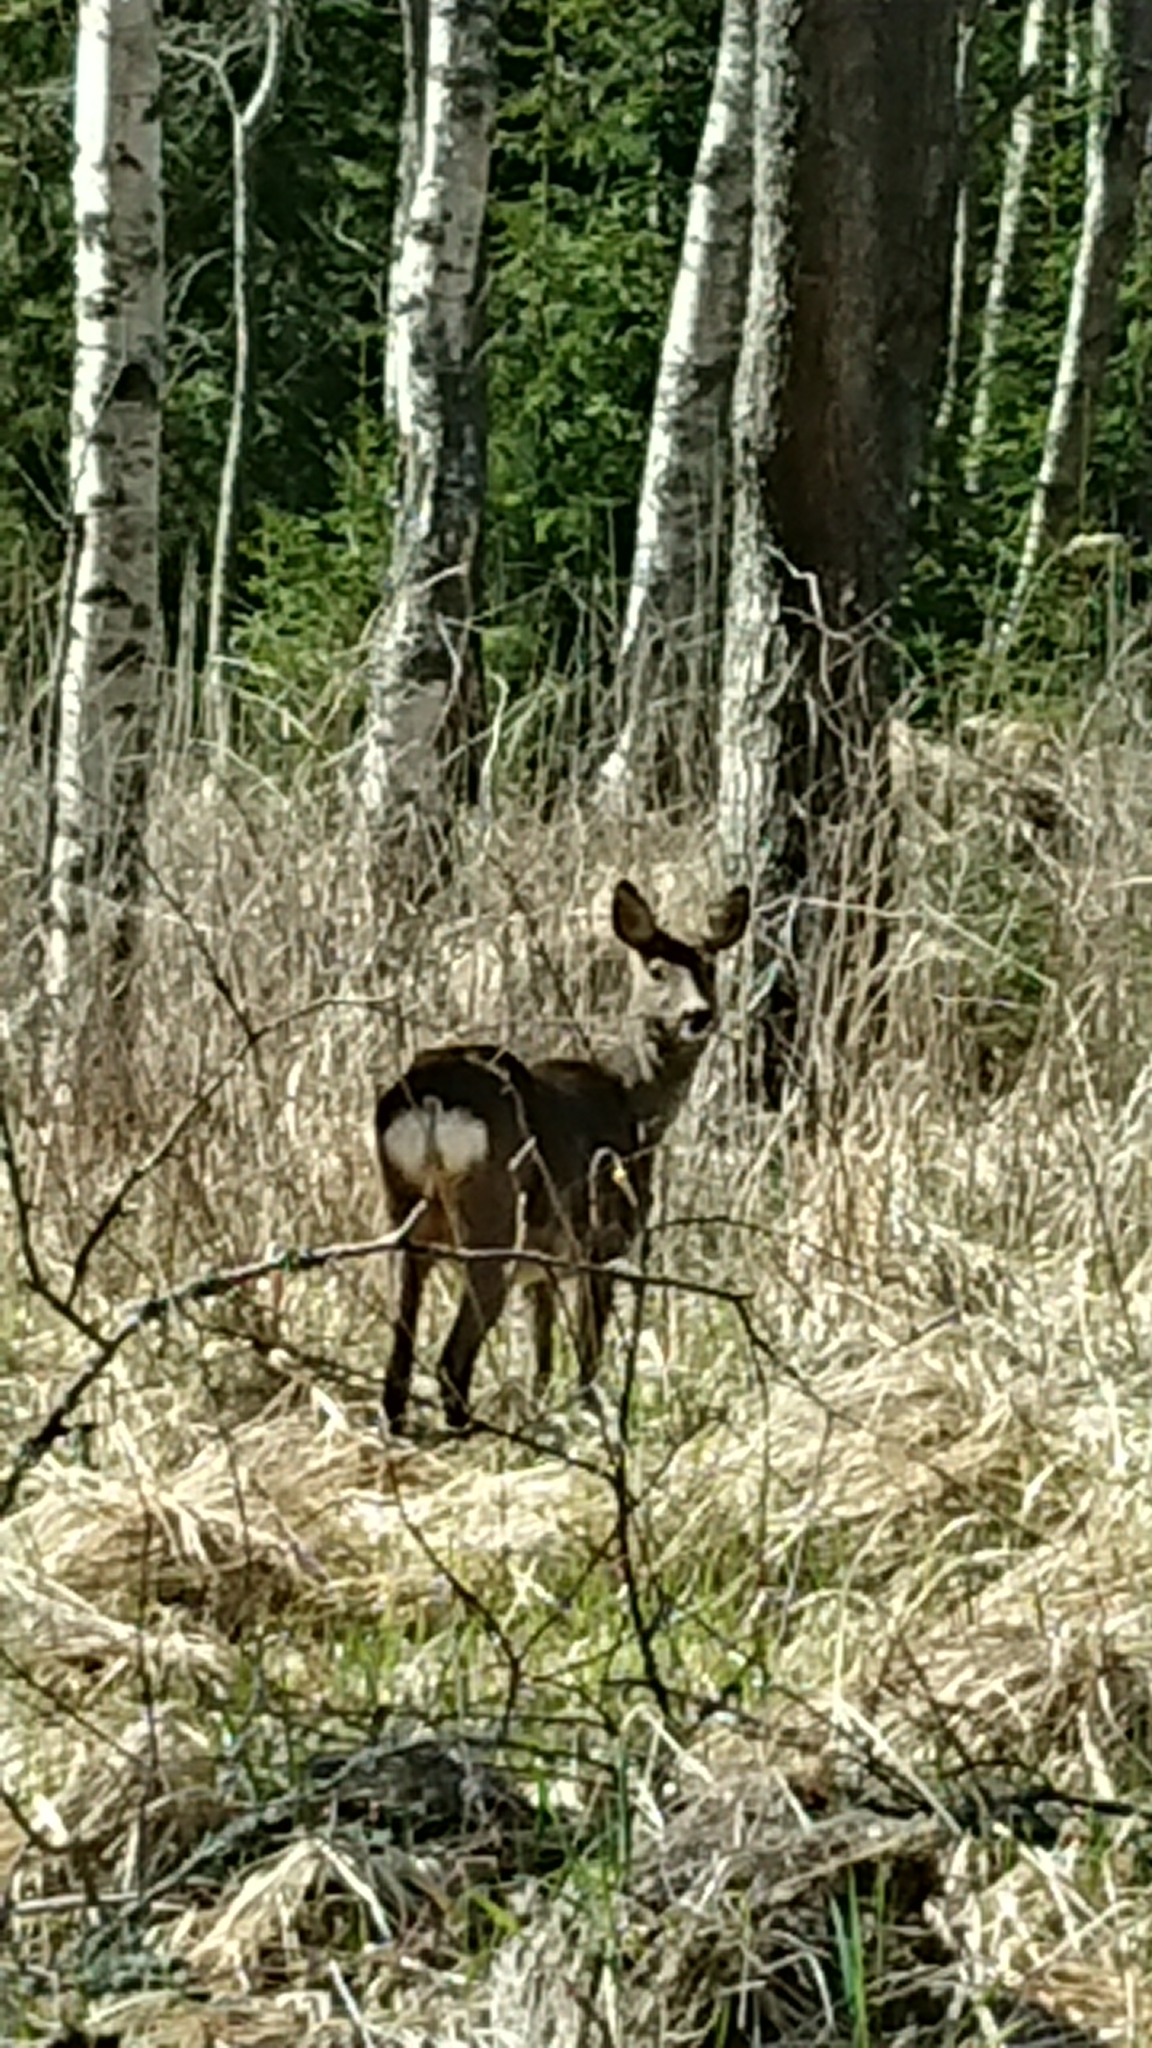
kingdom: Animalia
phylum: Chordata
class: Mammalia
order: Artiodactyla
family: Cervidae
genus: Capreolus
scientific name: Capreolus capreolus
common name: Western roe deer
